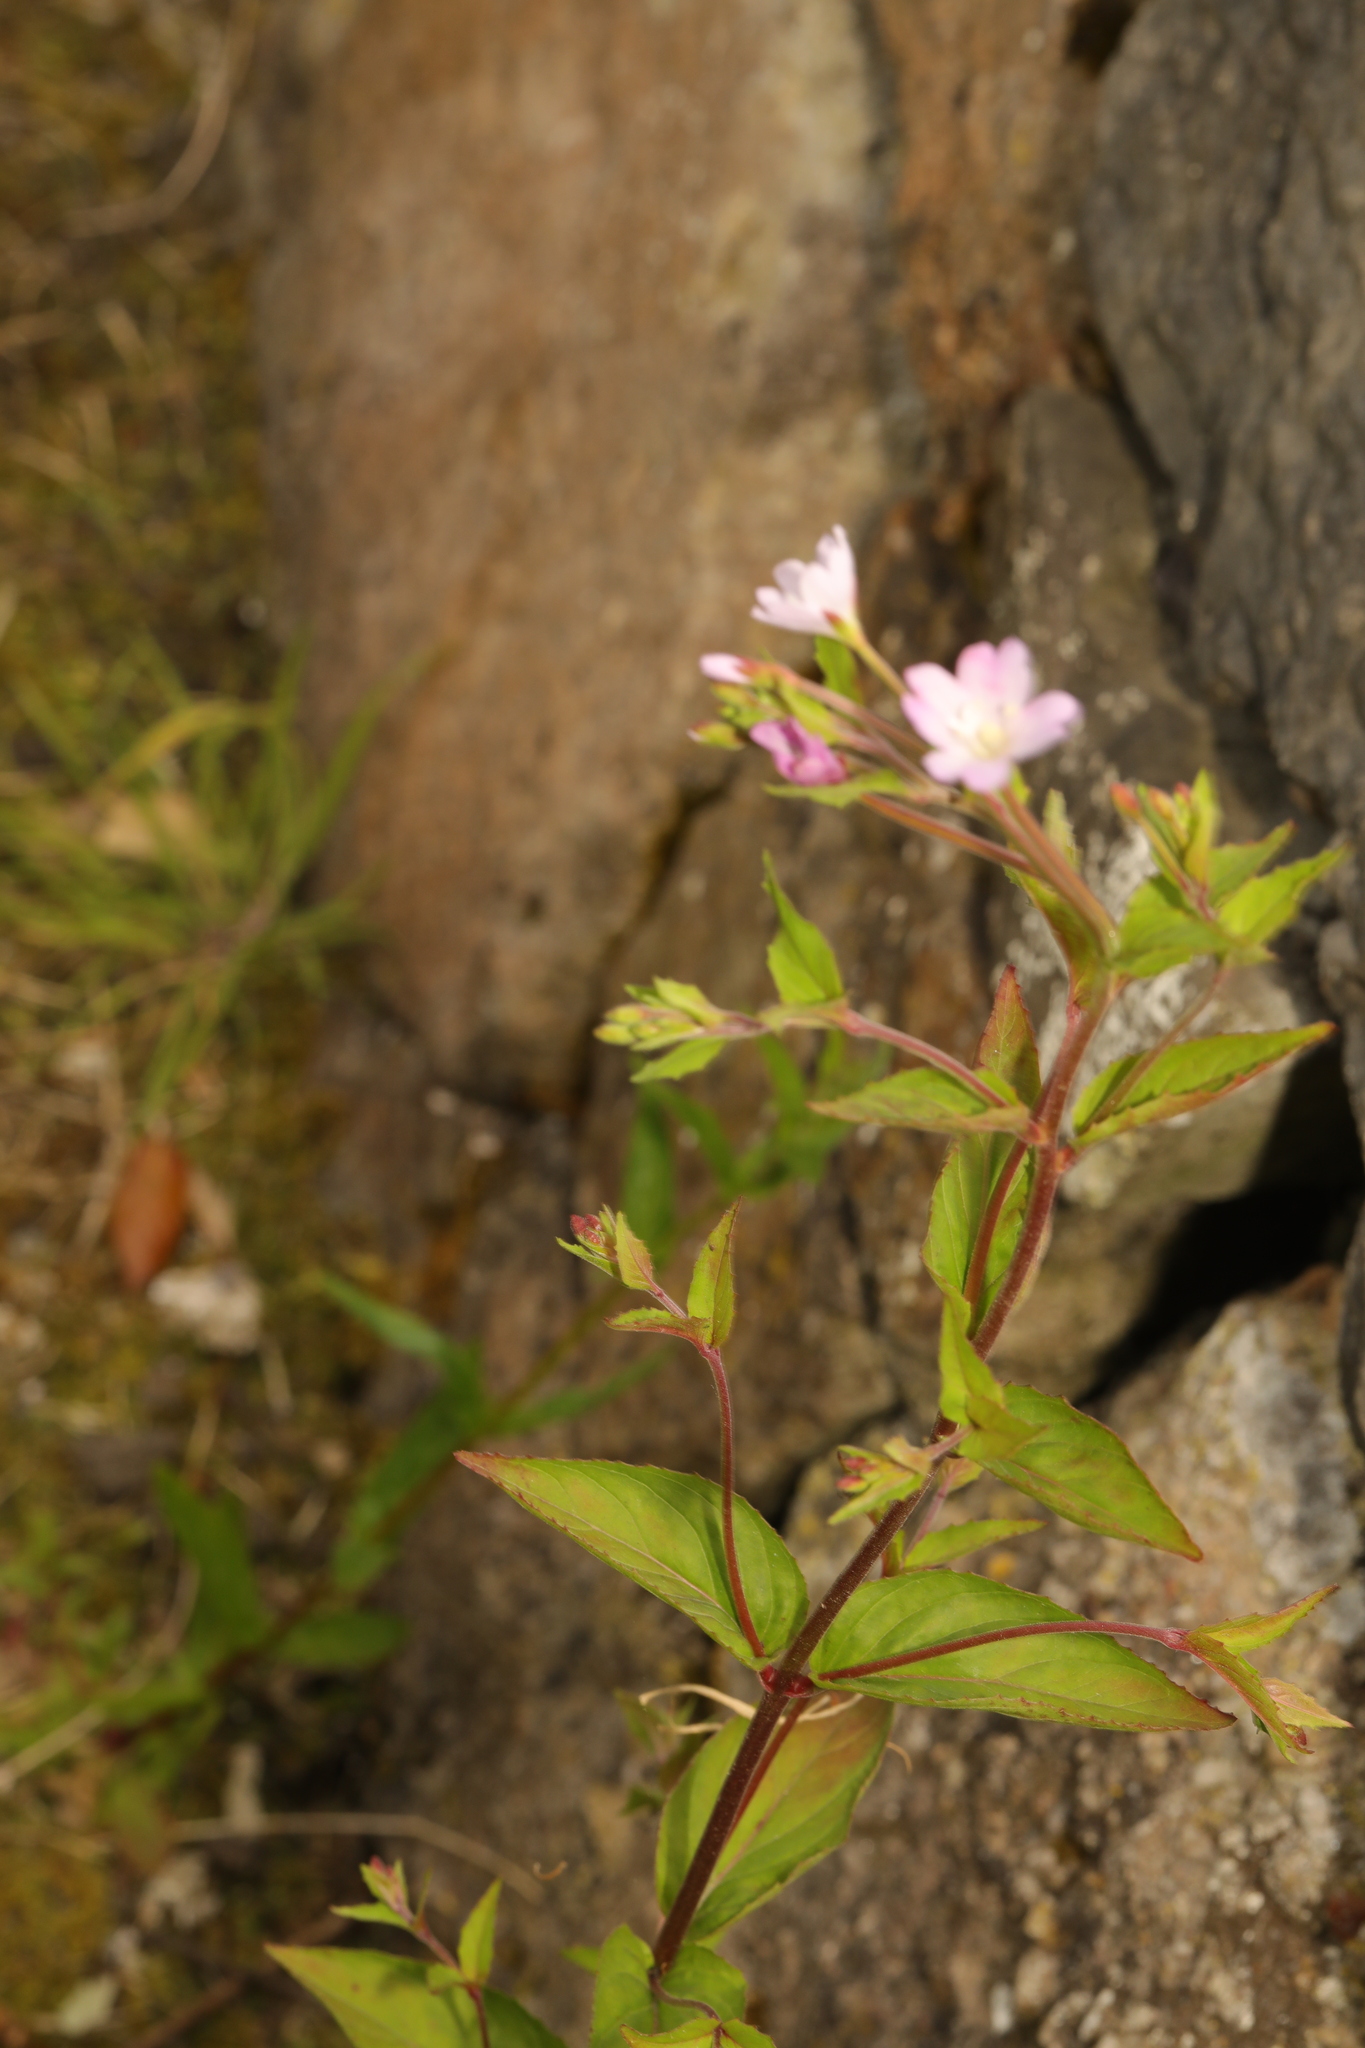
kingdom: Plantae
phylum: Tracheophyta
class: Magnoliopsida
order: Myrtales
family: Onagraceae
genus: Epilobium
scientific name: Epilobium montanum
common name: Broad-leaved willowherb
